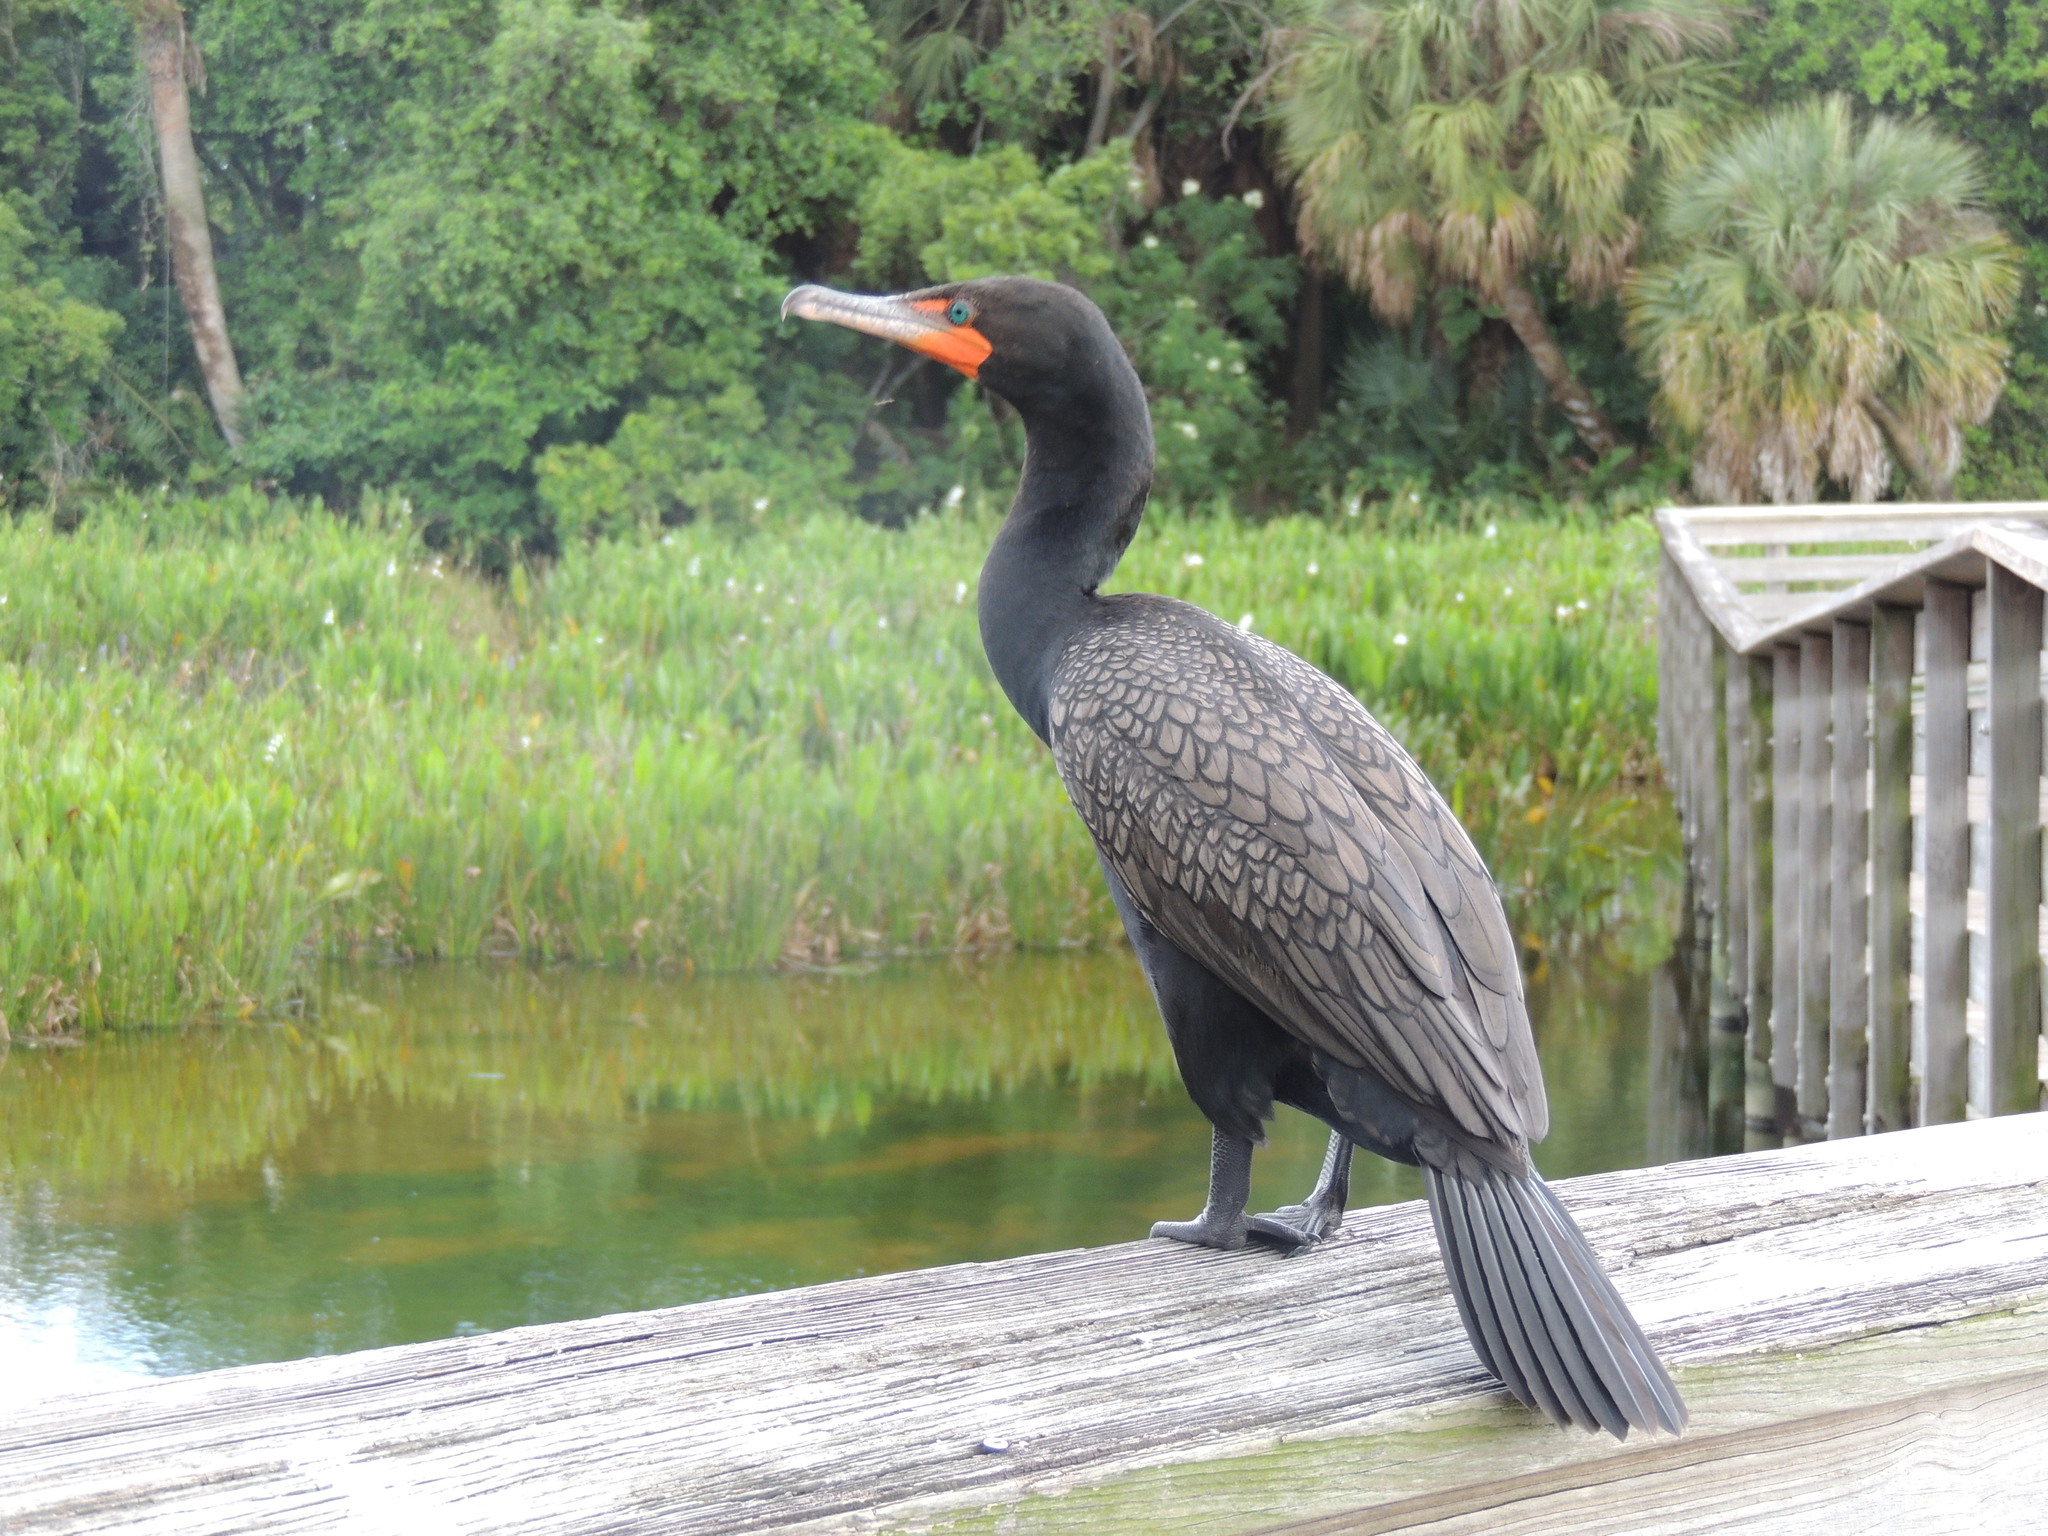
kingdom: Animalia
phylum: Chordata
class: Aves
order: Suliformes
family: Phalacrocoracidae
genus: Phalacrocorax
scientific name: Phalacrocorax auritus
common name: Double-crested cormorant
